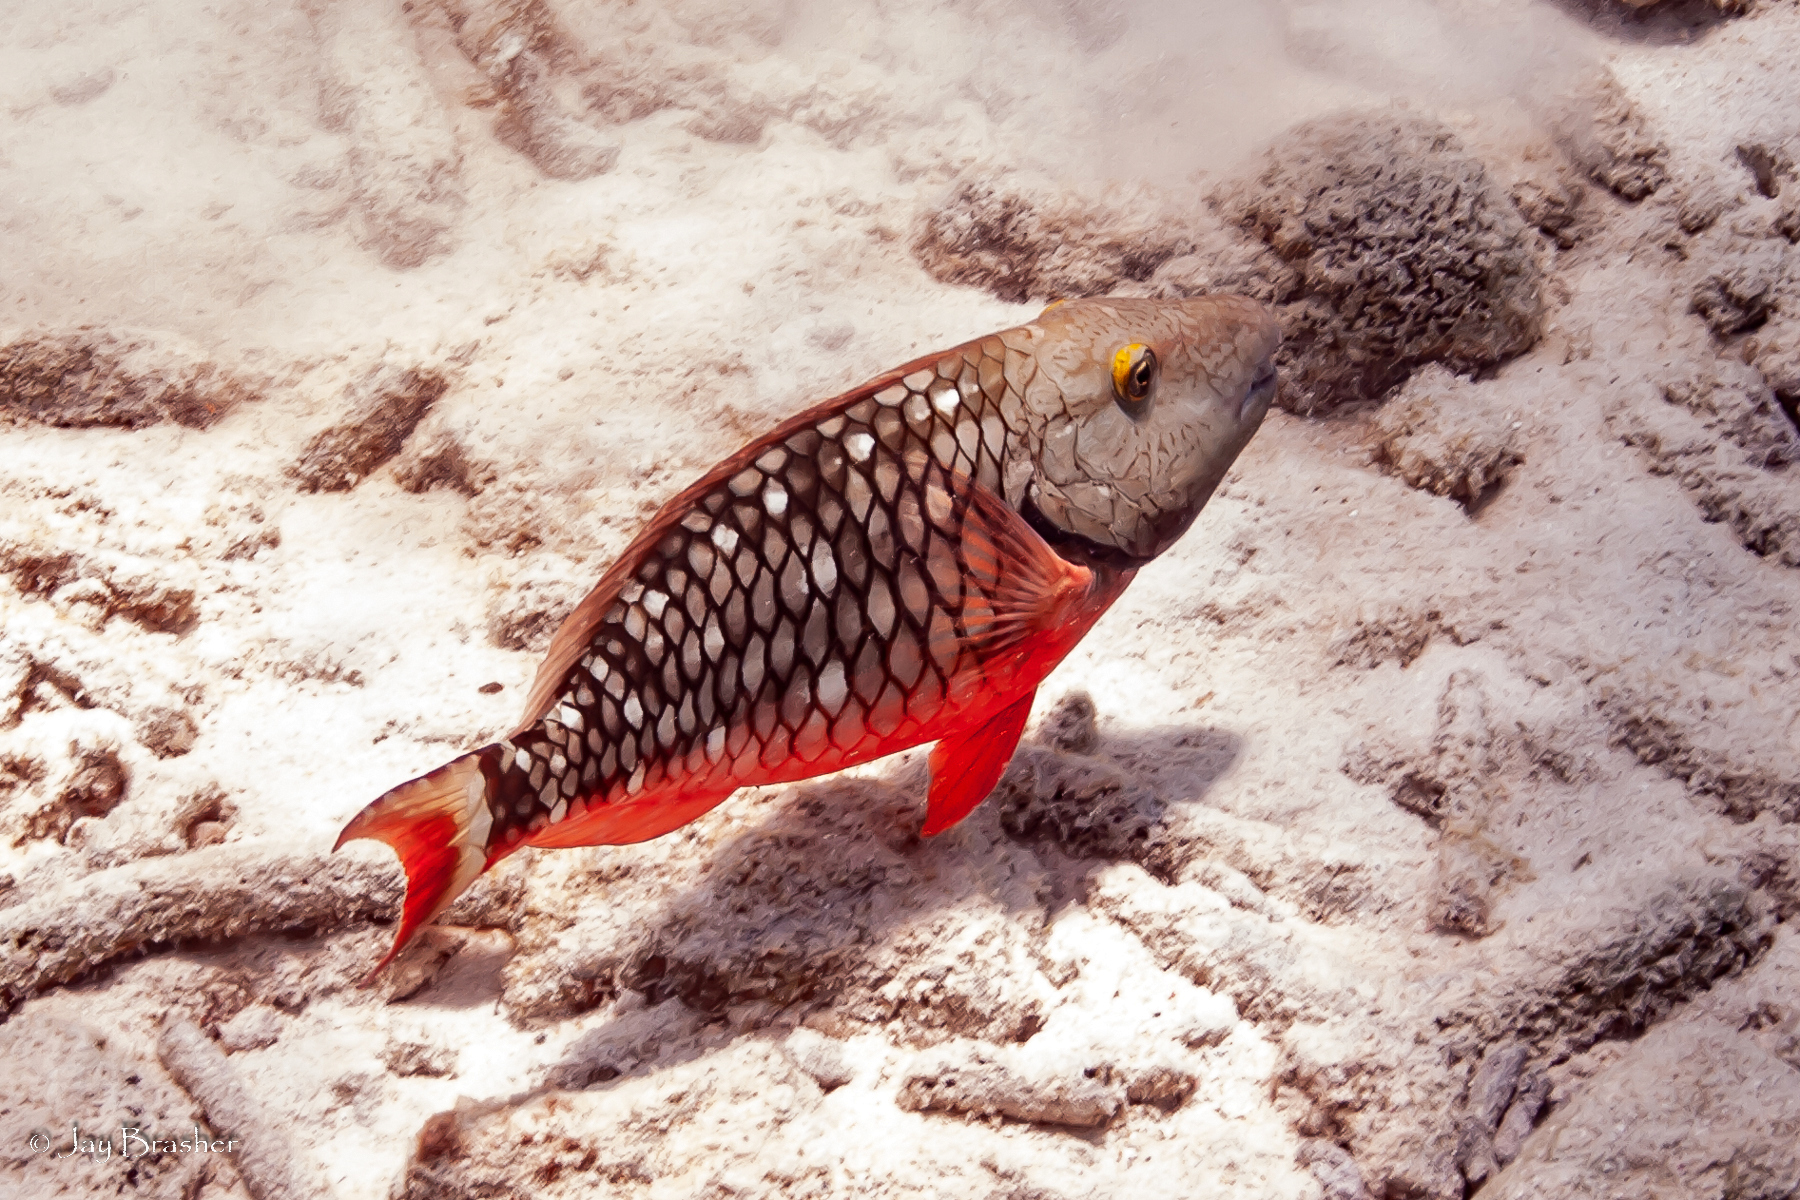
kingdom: Animalia
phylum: Chordata
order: Perciformes
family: Scaridae
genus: Sparisoma
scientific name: Sparisoma viride
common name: Stoplight parrotfish
